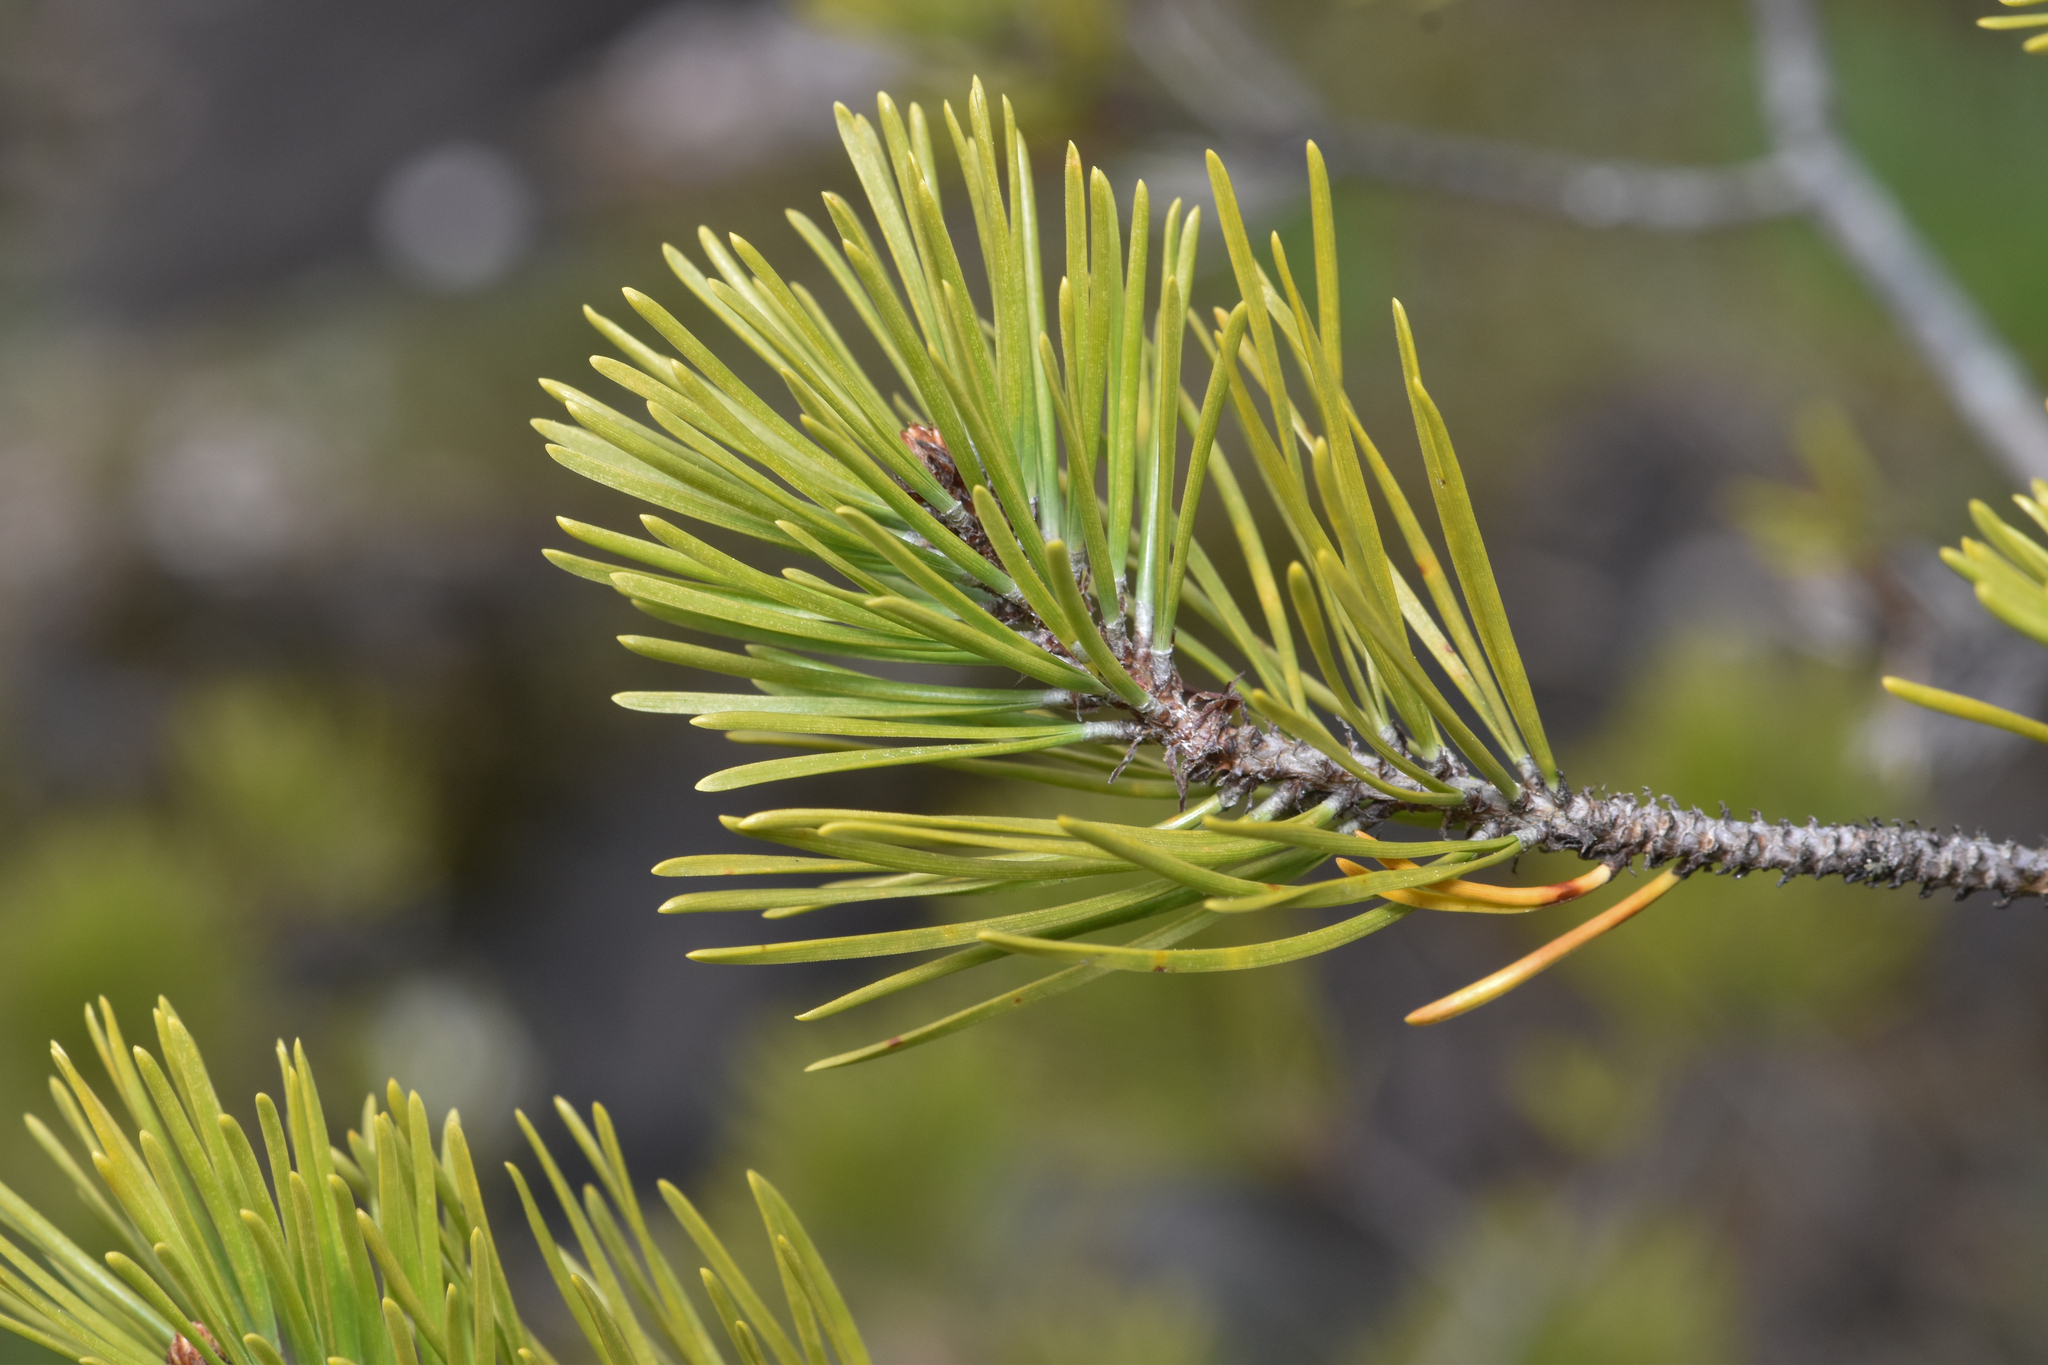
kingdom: Plantae
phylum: Tracheophyta
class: Pinopsida
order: Pinales
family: Pinaceae
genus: Pinus
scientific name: Pinus contorta
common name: Lodgepole pine
